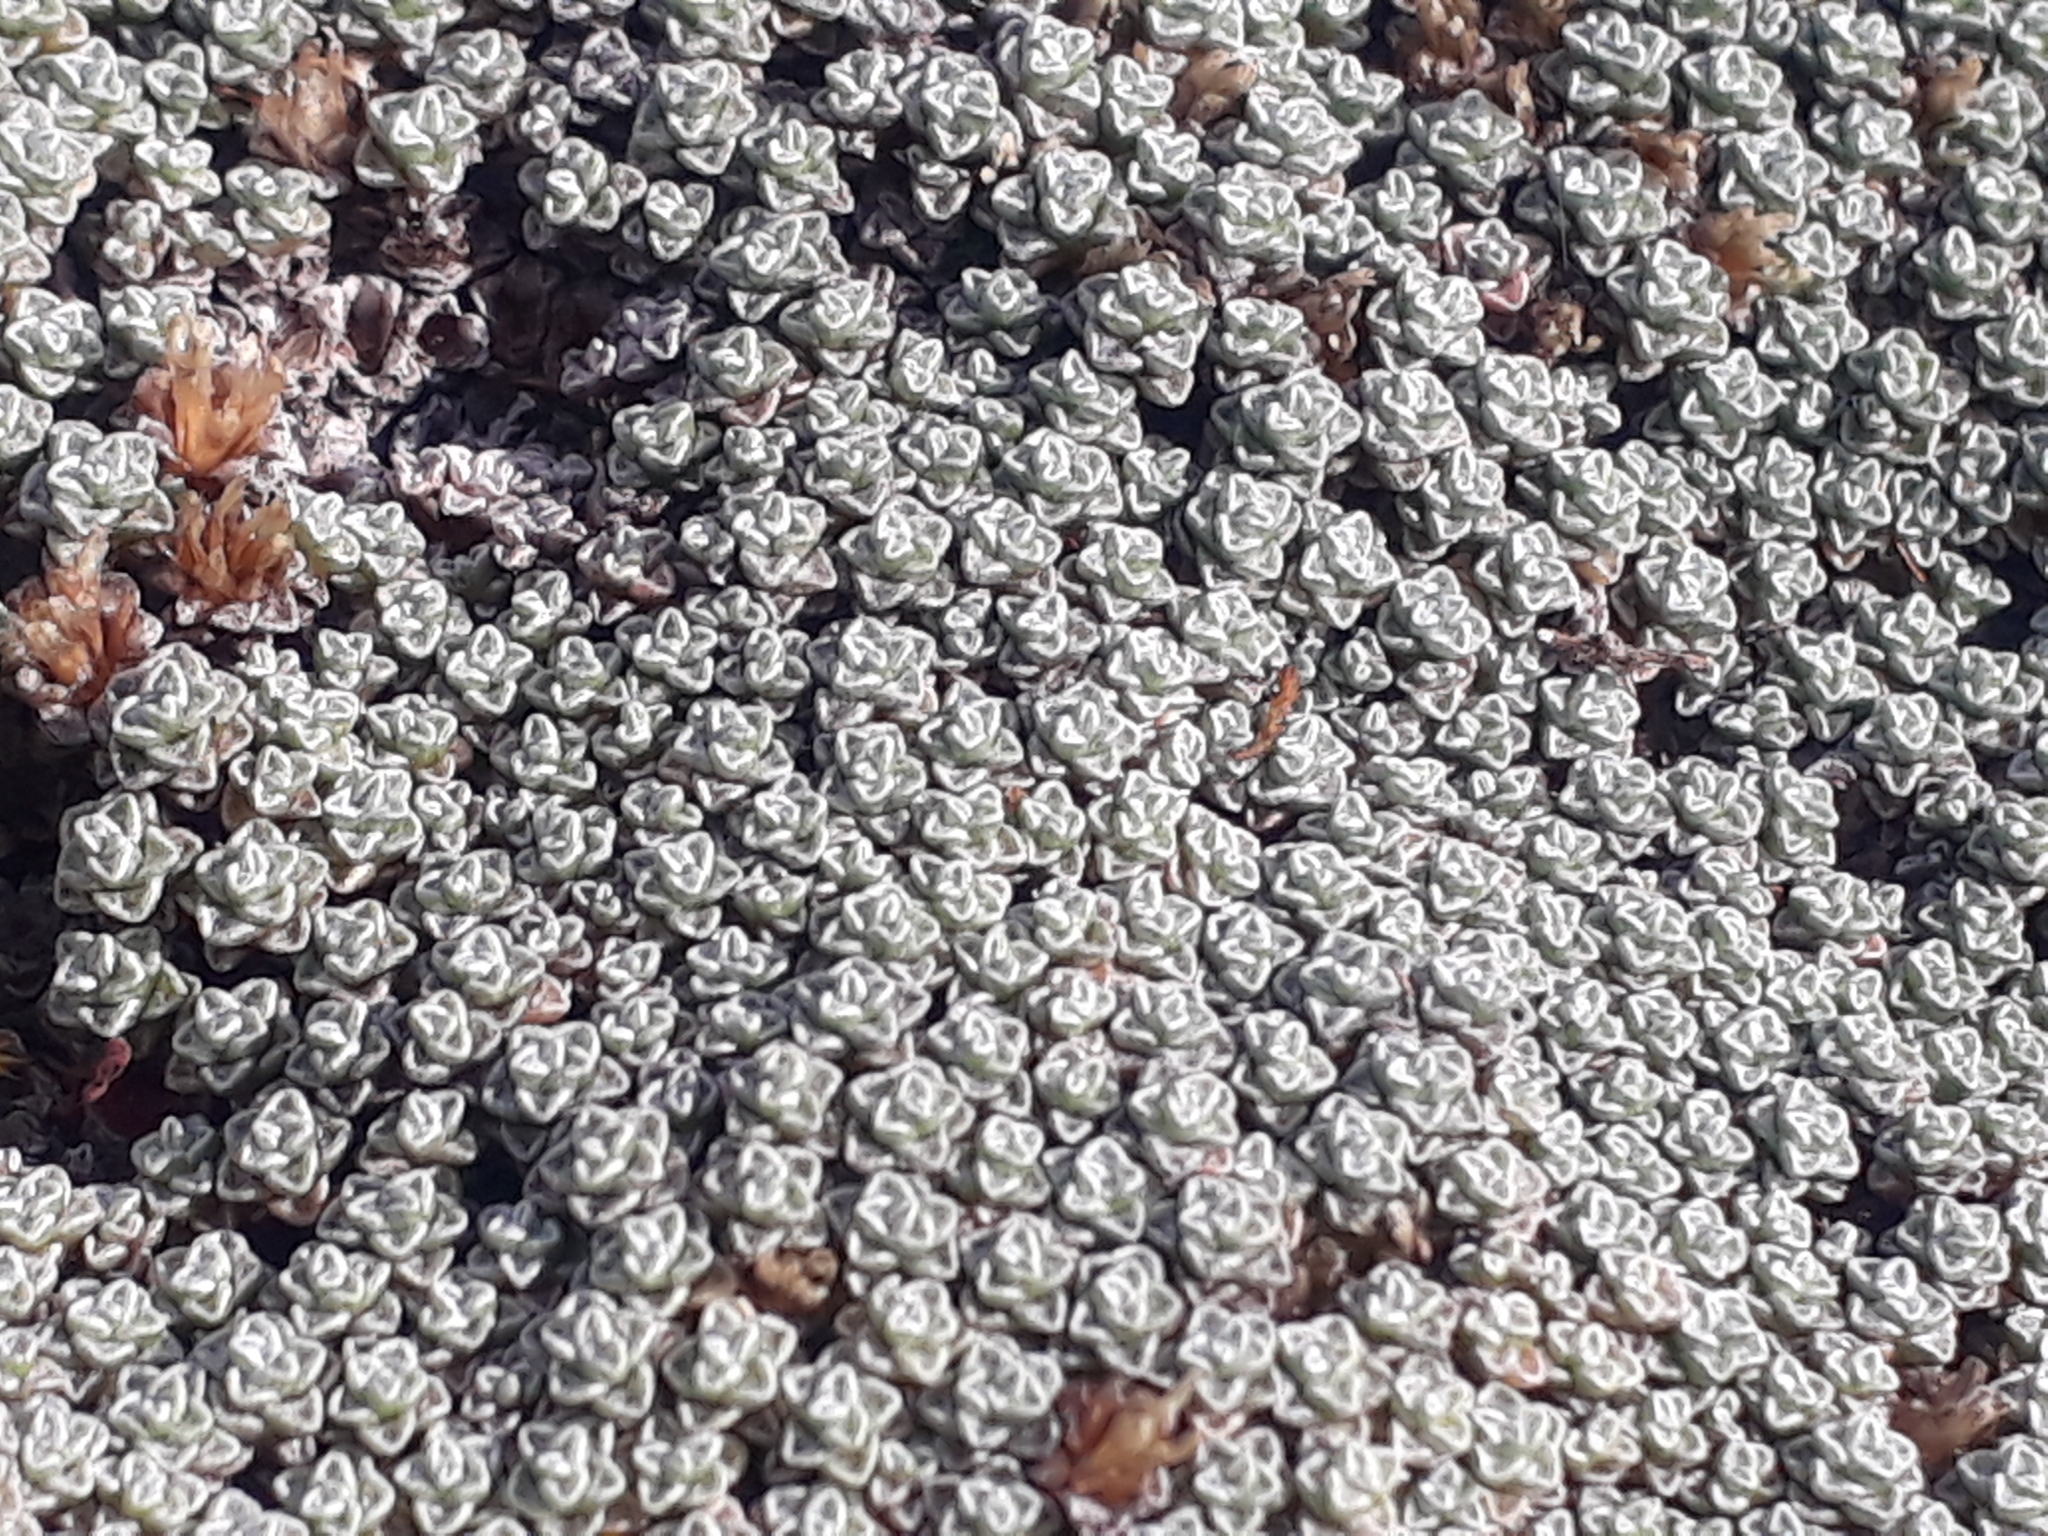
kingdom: Plantae
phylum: Tracheophyta
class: Magnoliopsida
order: Asterales
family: Asteraceae
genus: Raoulia
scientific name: Raoulia australis
